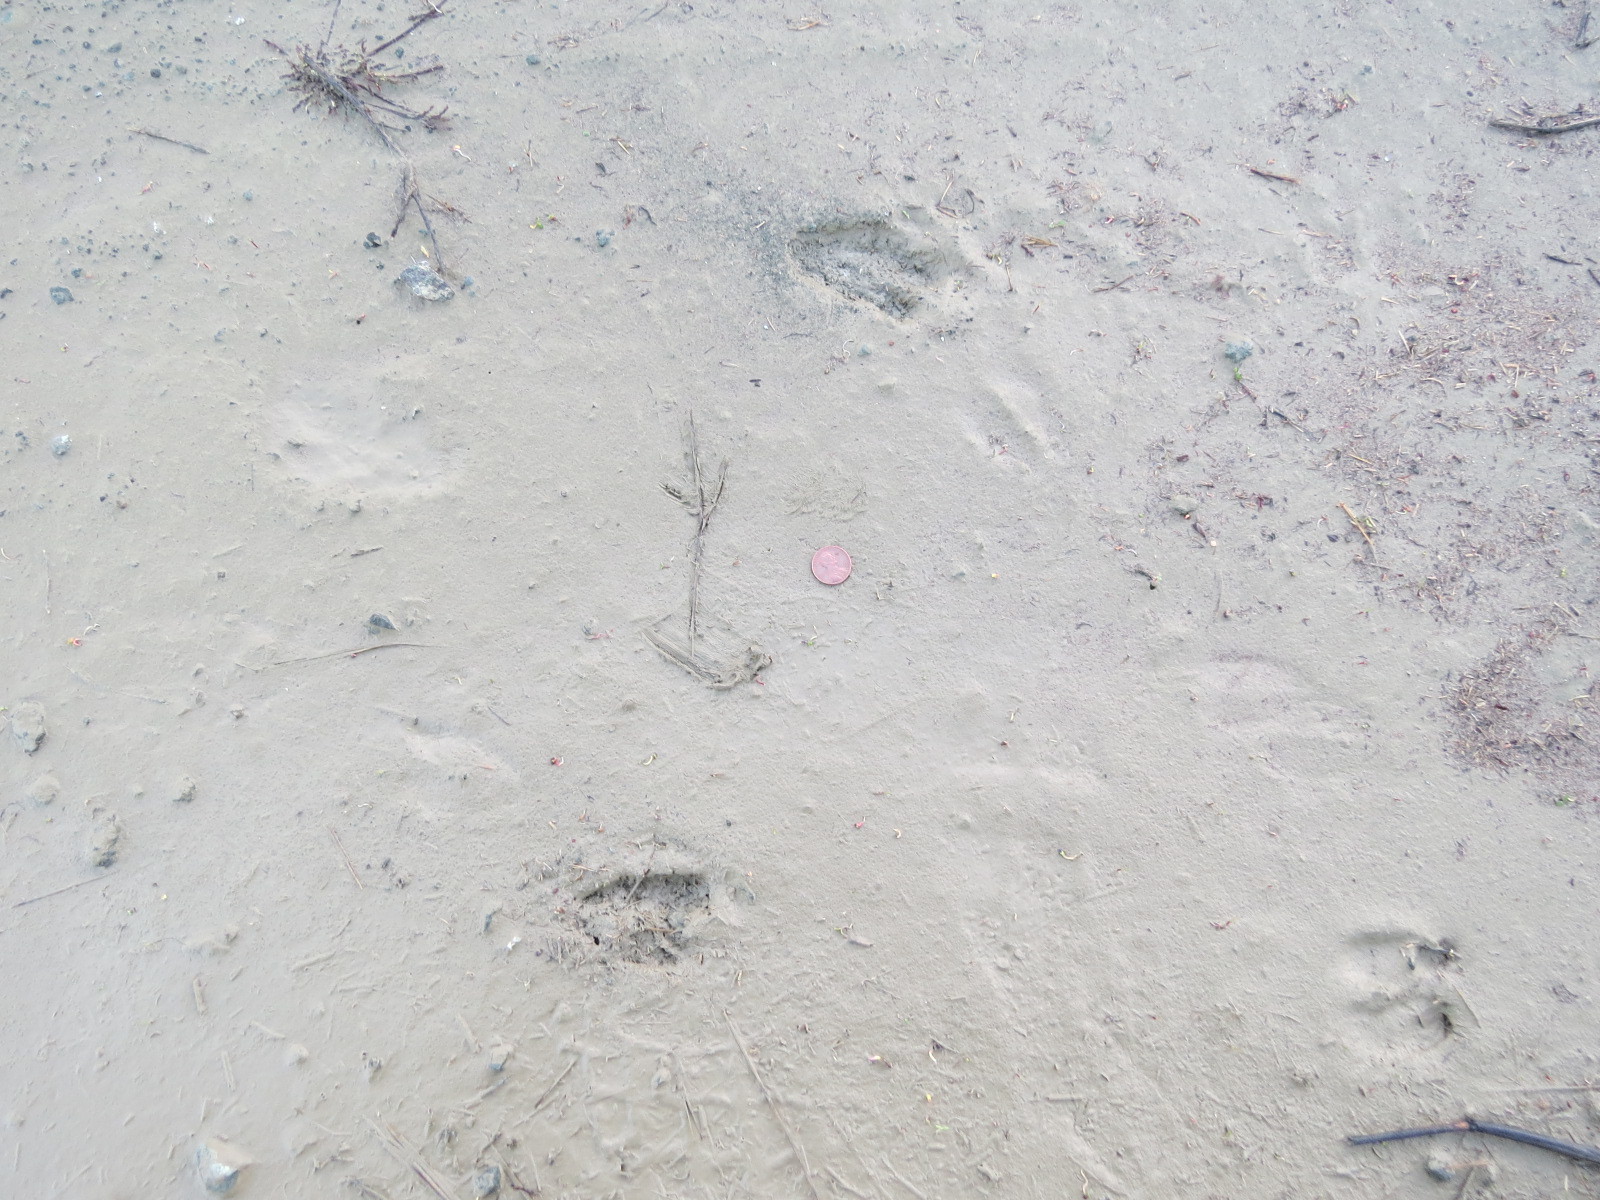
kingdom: Animalia
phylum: Chordata
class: Mammalia
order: Lagomorpha
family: Leporidae
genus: Sylvilagus
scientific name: Sylvilagus bachmani
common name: Brush rabbit
